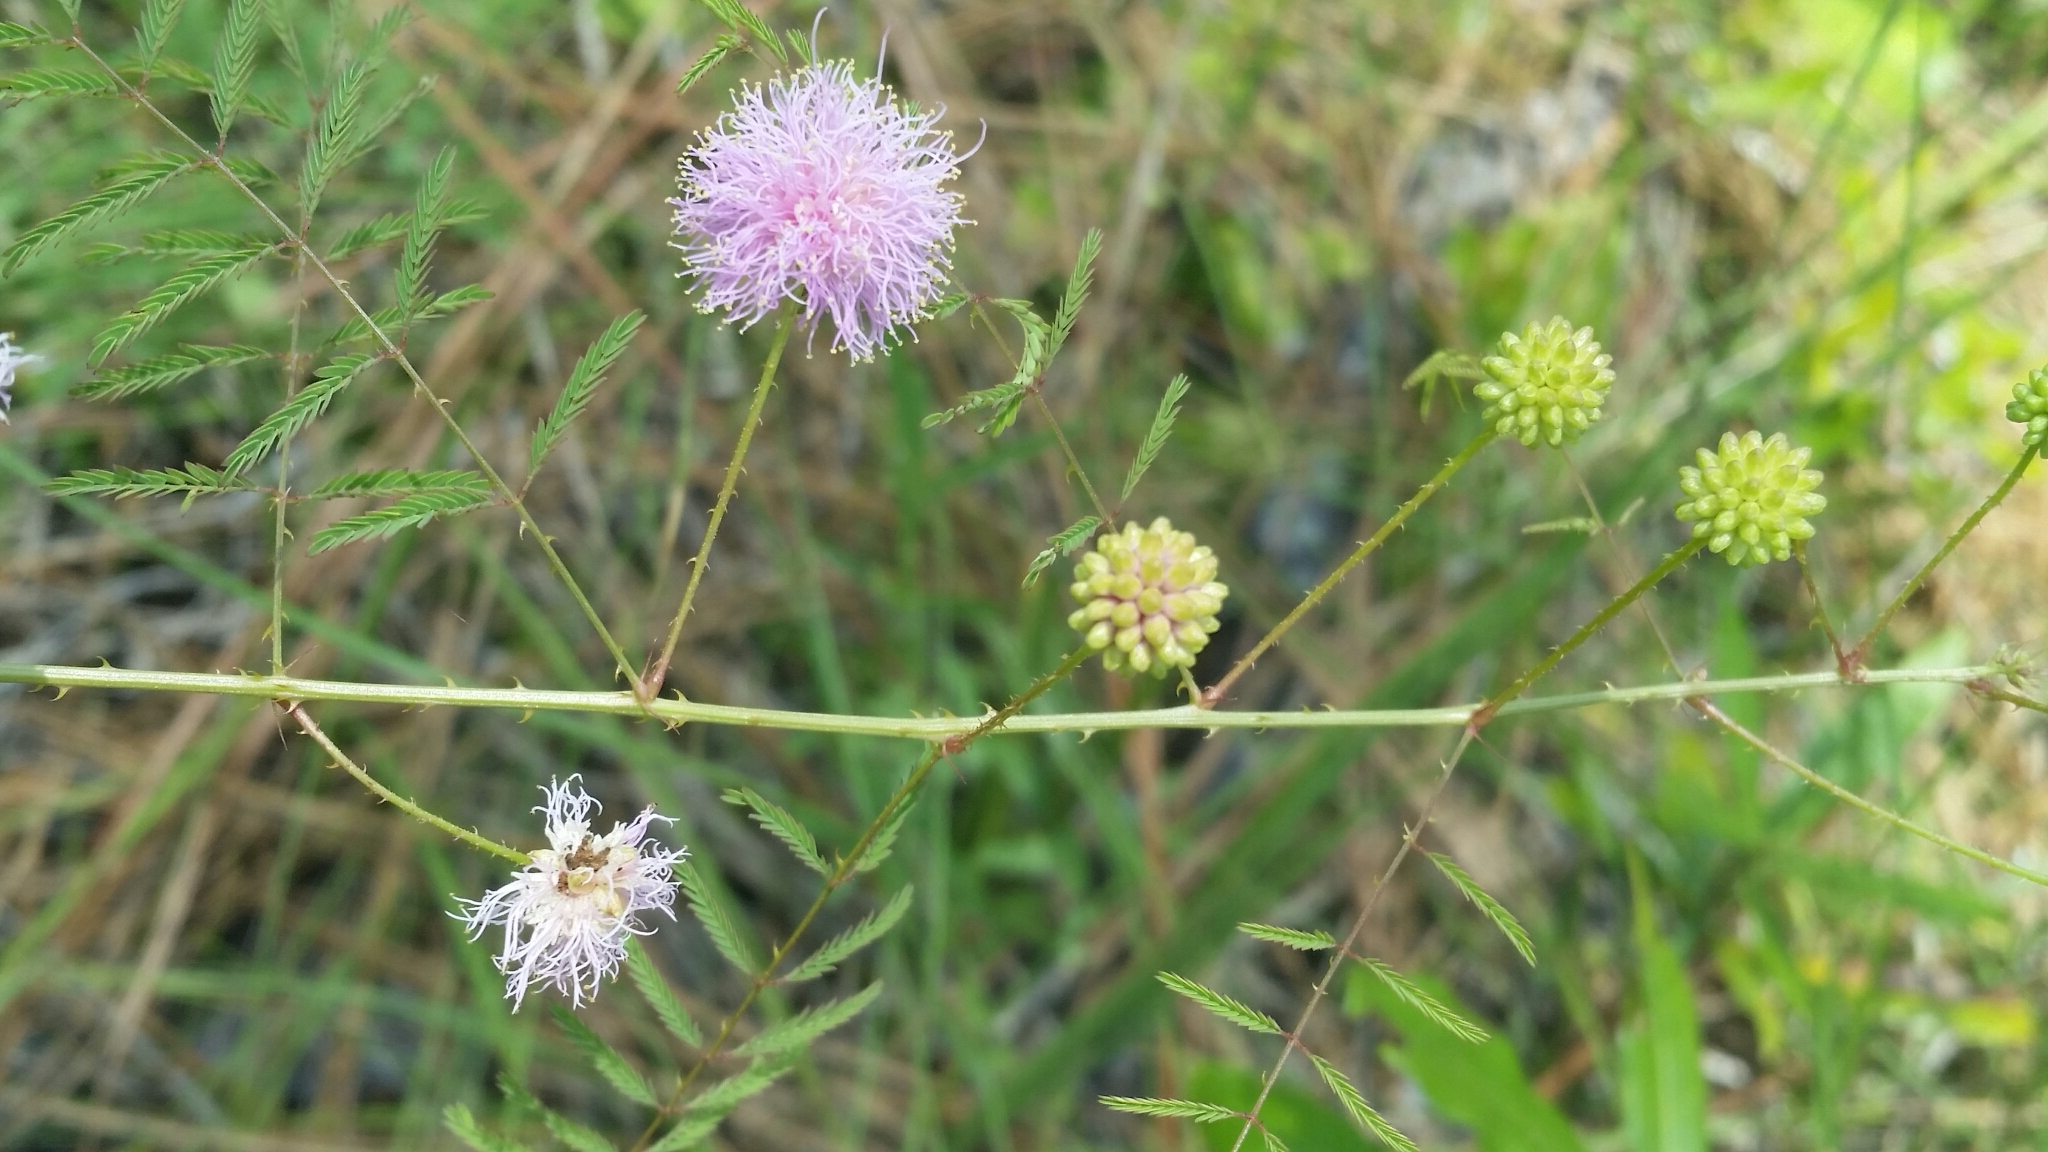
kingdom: Plantae
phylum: Tracheophyta
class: Magnoliopsida
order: Fabales
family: Fabaceae
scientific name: Fabaceae
